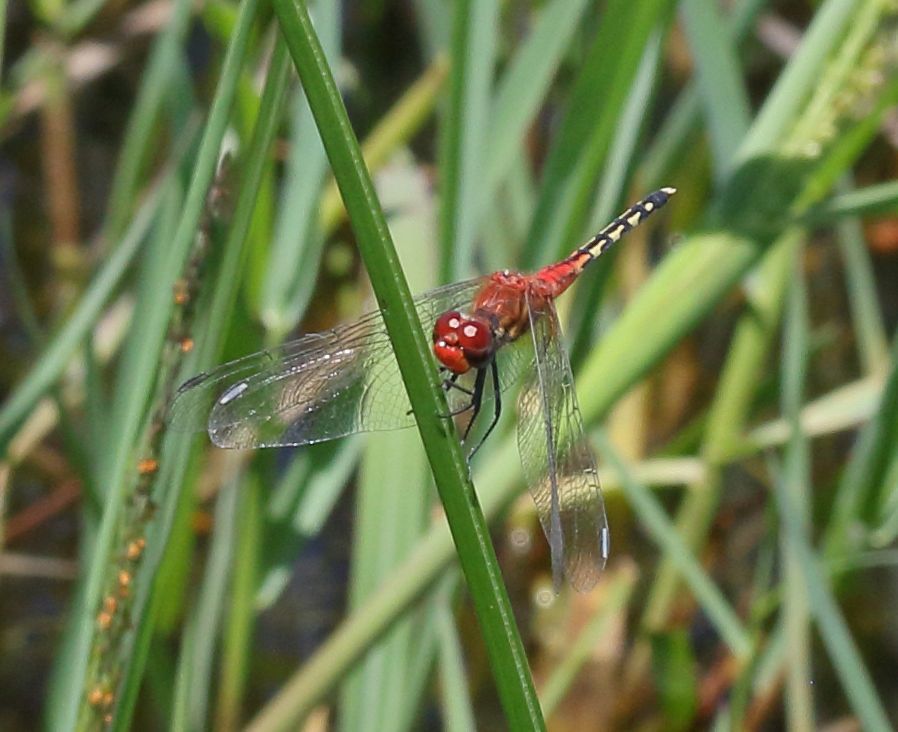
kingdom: Animalia
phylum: Arthropoda
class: Insecta
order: Odonata
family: Libellulidae
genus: Diplacodes
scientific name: Diplacodes luminans
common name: Barbet percher
